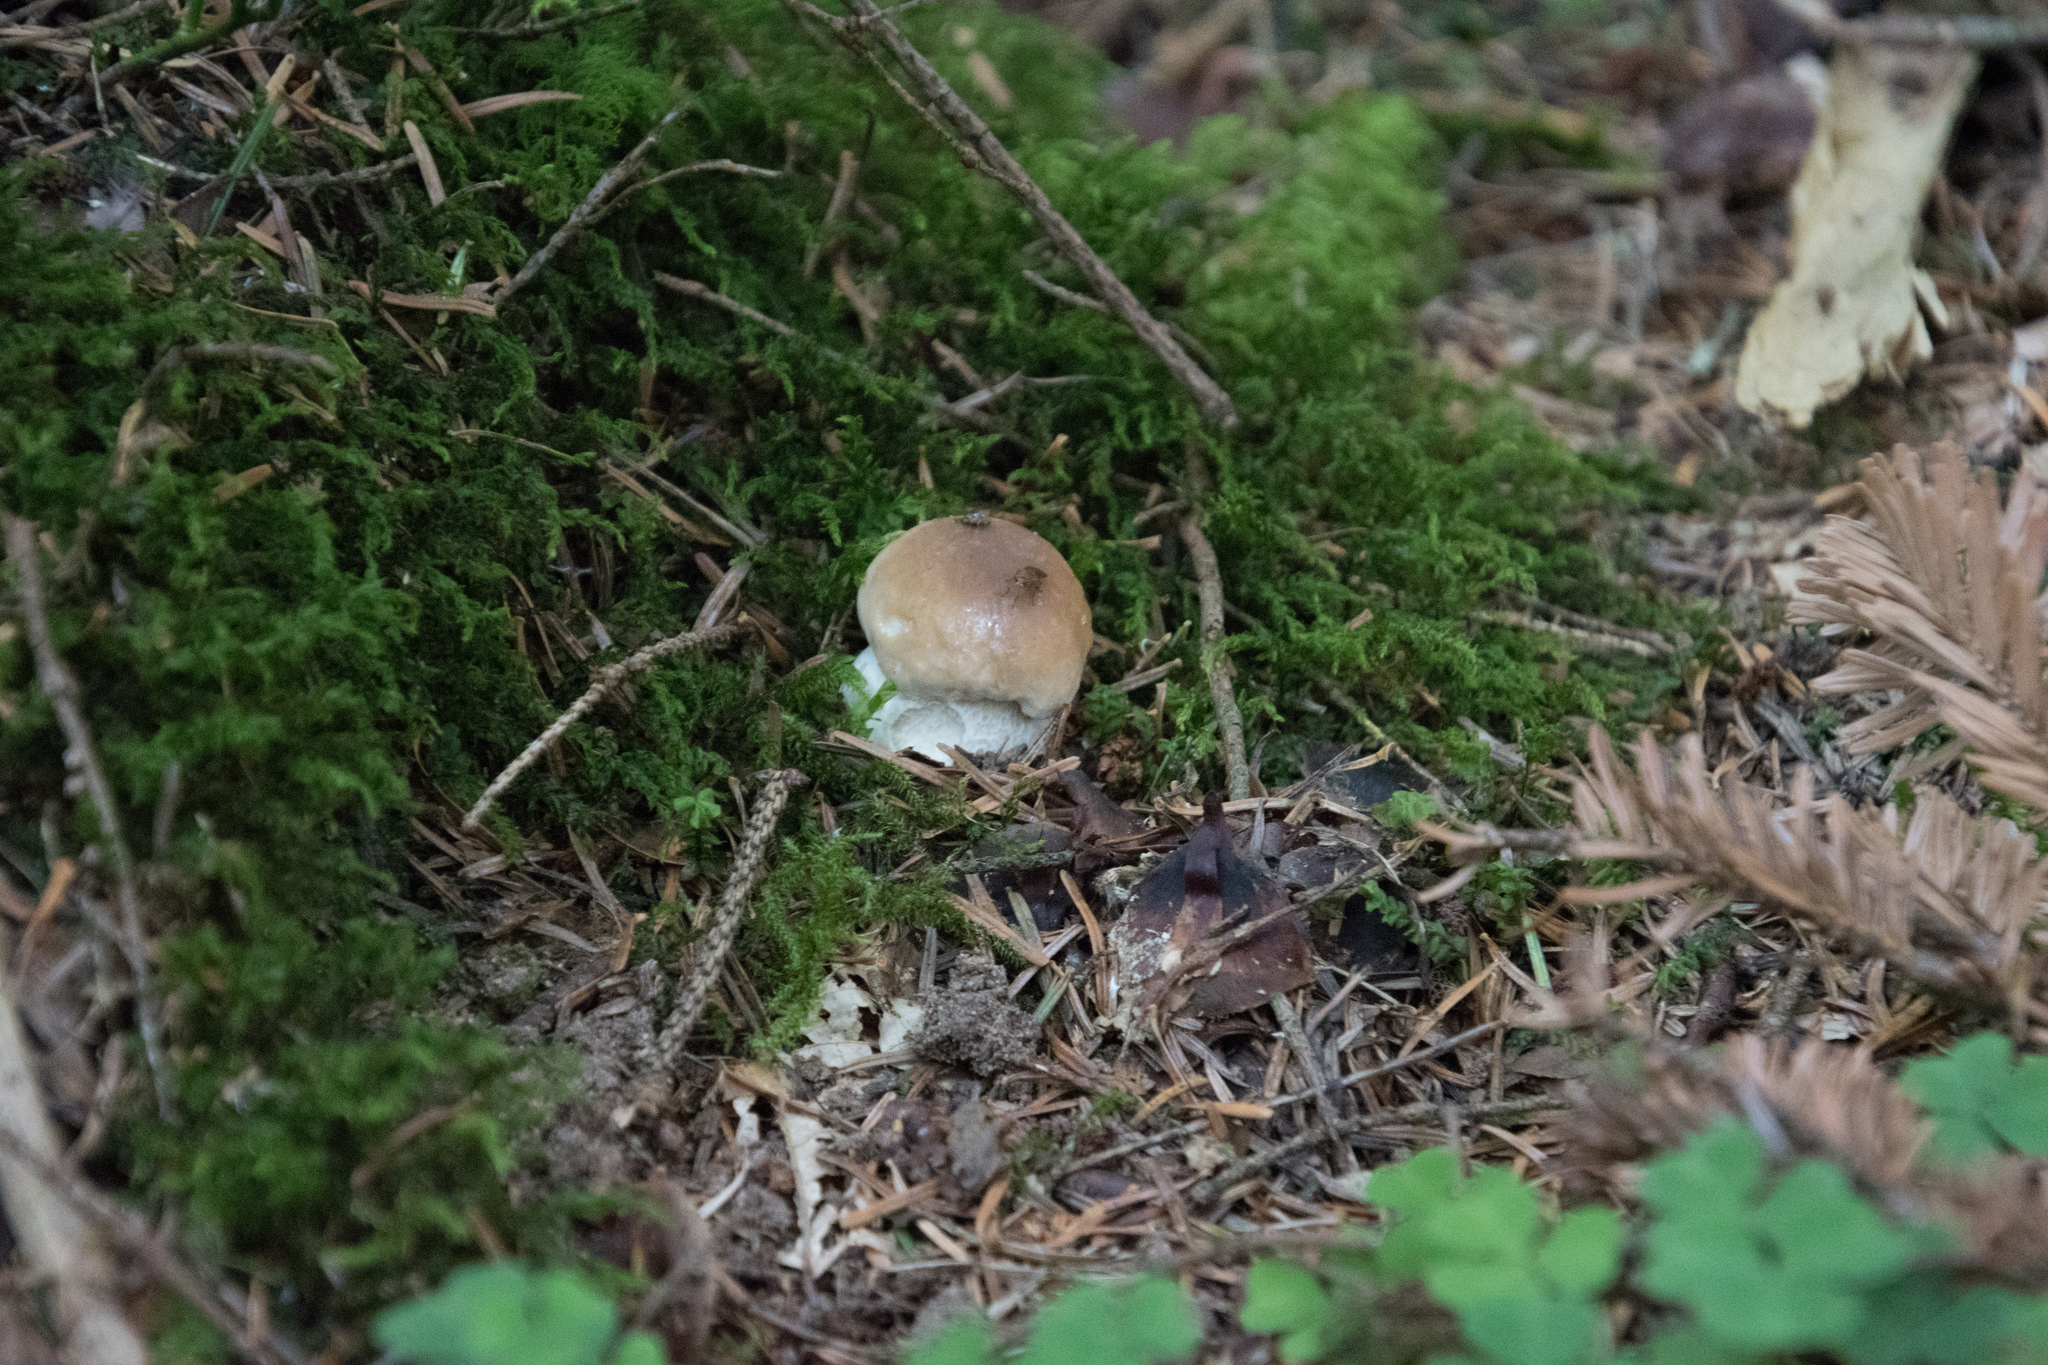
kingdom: Fungi
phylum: Basidiomycota
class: Agaricomycetes
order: Boletales
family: Boletaceae
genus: Boletus
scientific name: Boletus edulis
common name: Cep
